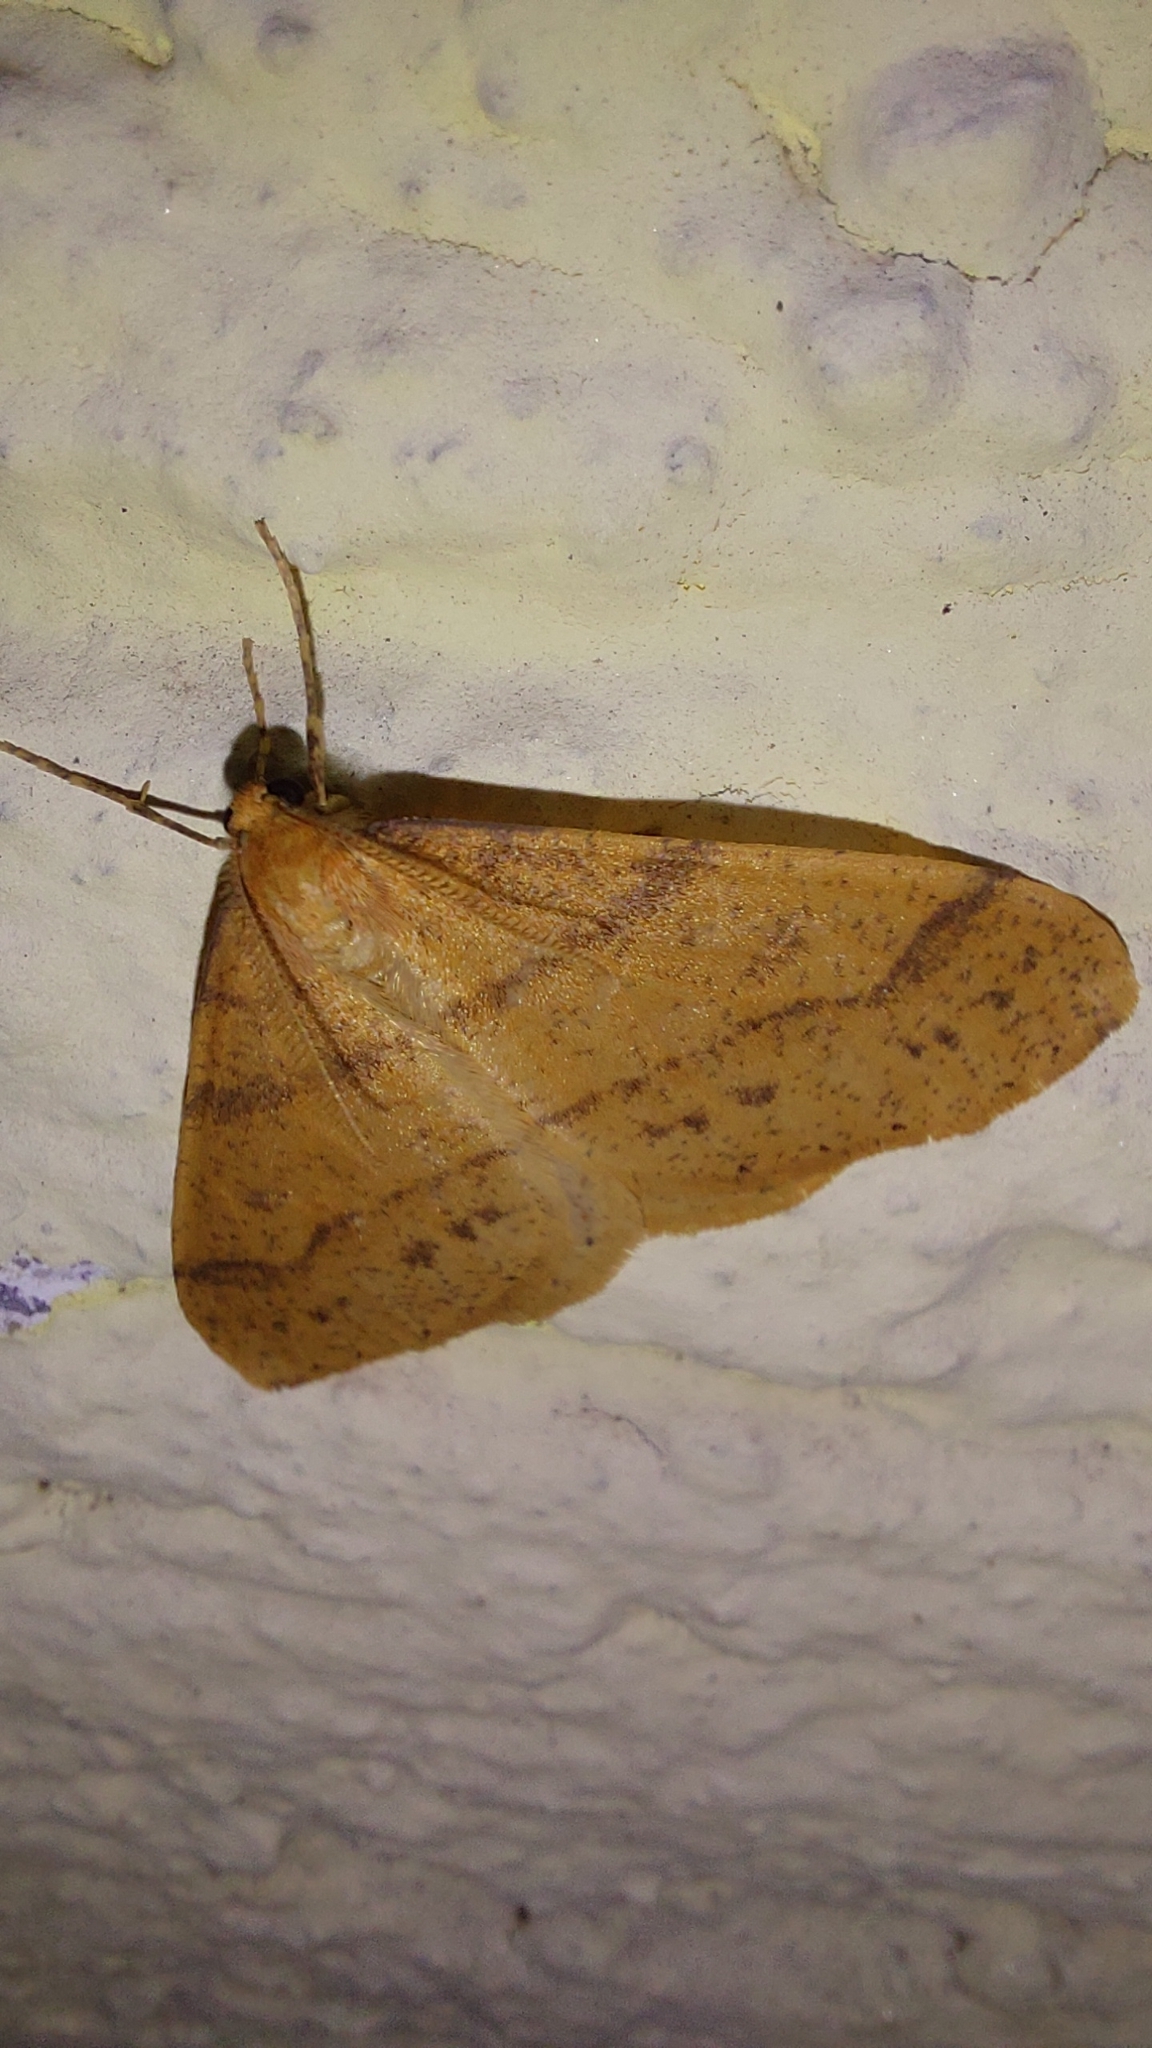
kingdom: Animalia
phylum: Arthropoda
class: Insecta
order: Lepidoptera
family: Geometridae
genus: Agriopis
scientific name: Agriopis aurantiaria
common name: Scarce umber
